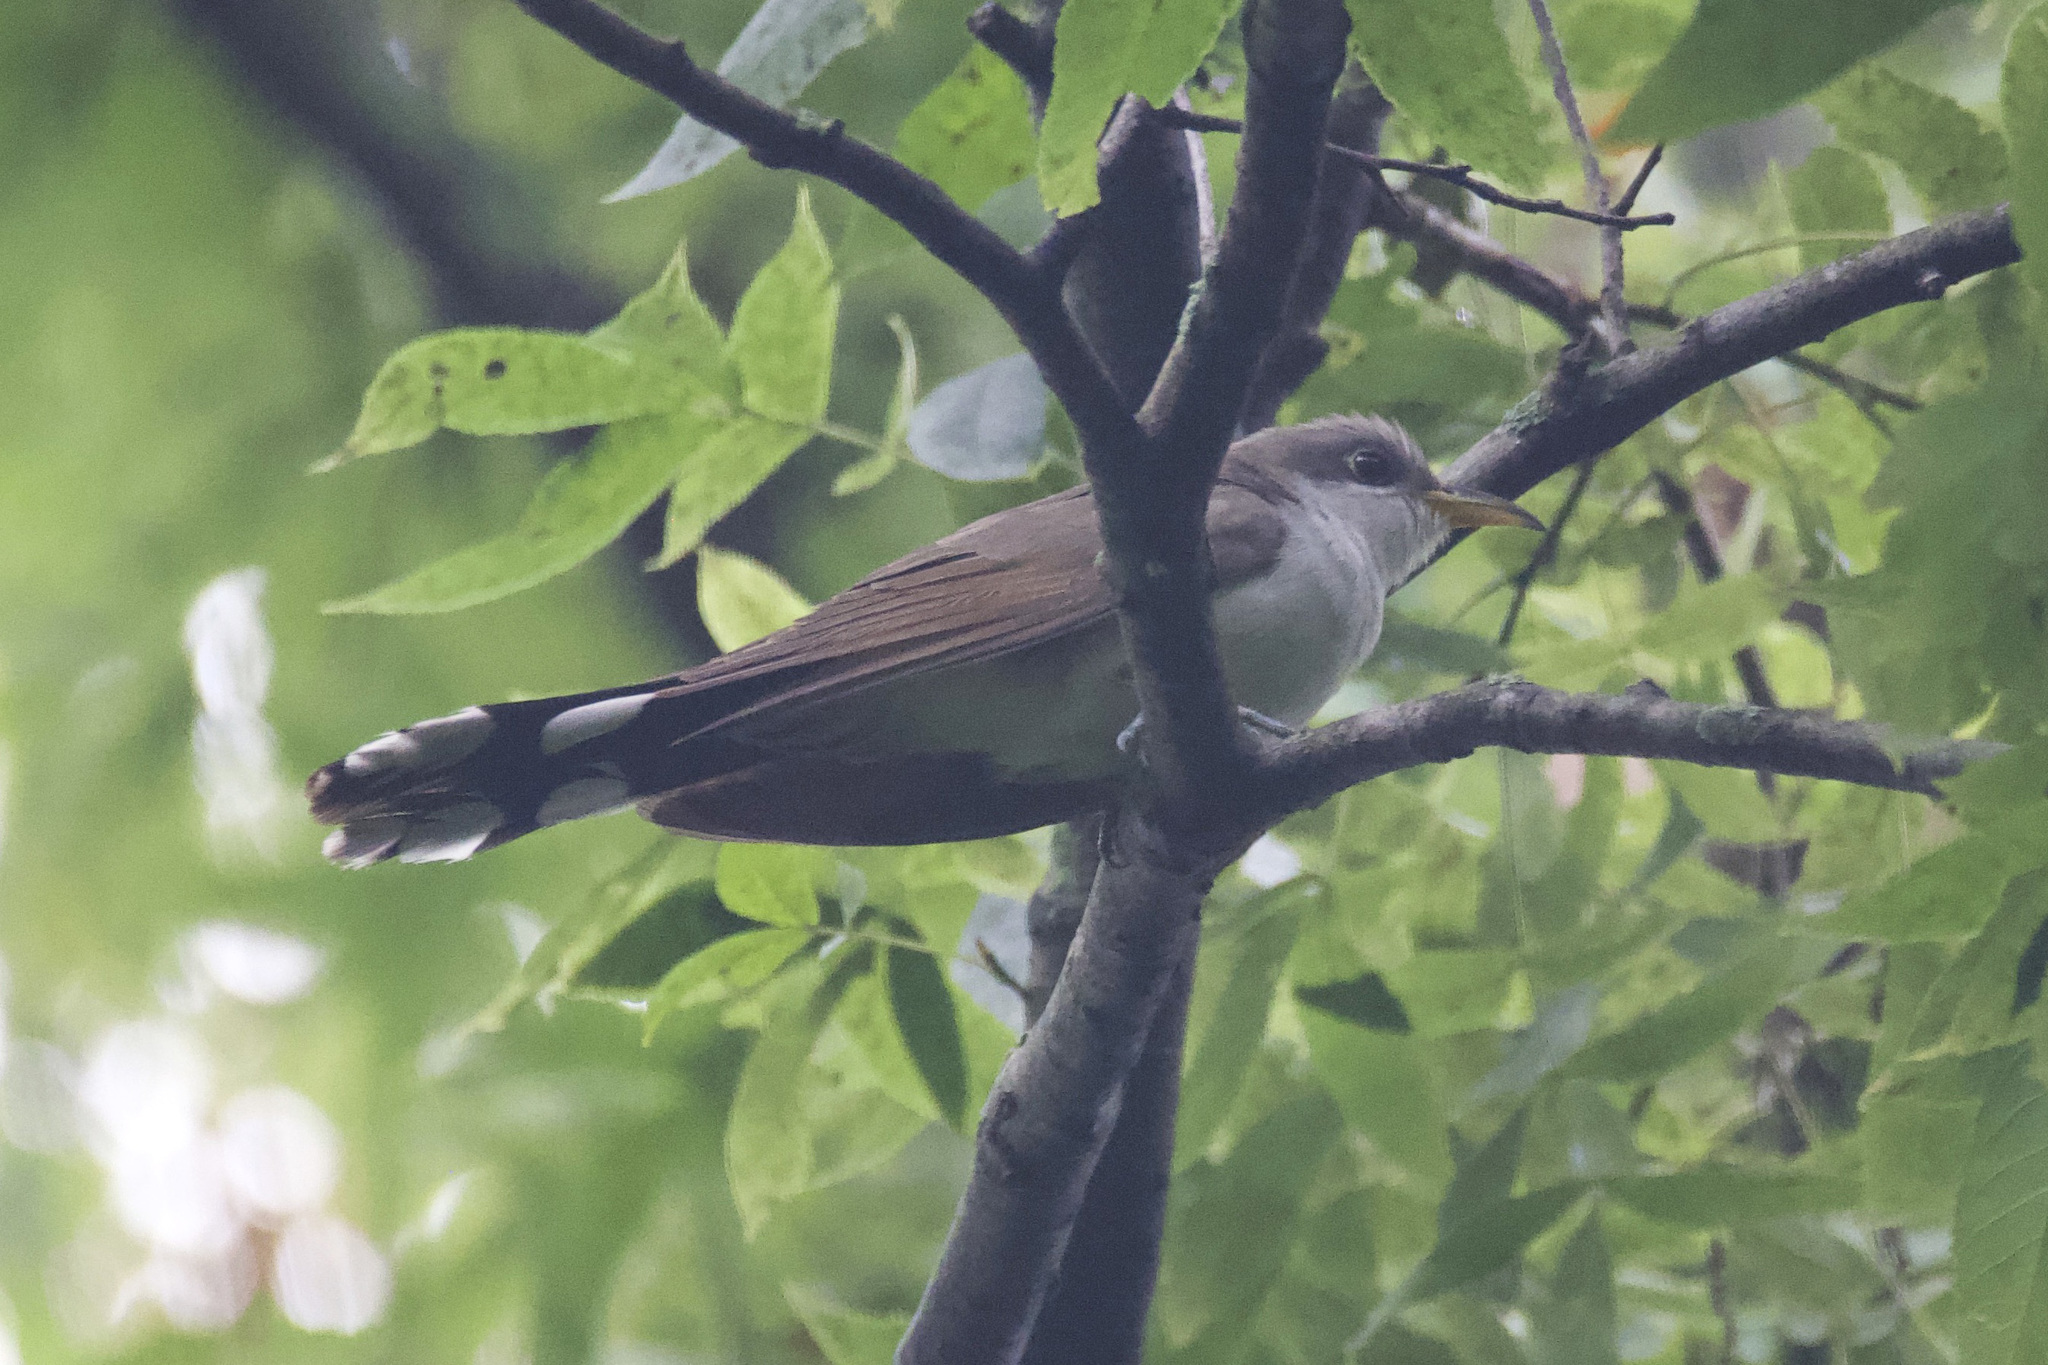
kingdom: Animalia
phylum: Chordata
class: Aves
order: Cuculiformes
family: Cuculidae
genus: Coccyzus
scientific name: Coccyzus americanus
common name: Yellow-billed cuckoo
